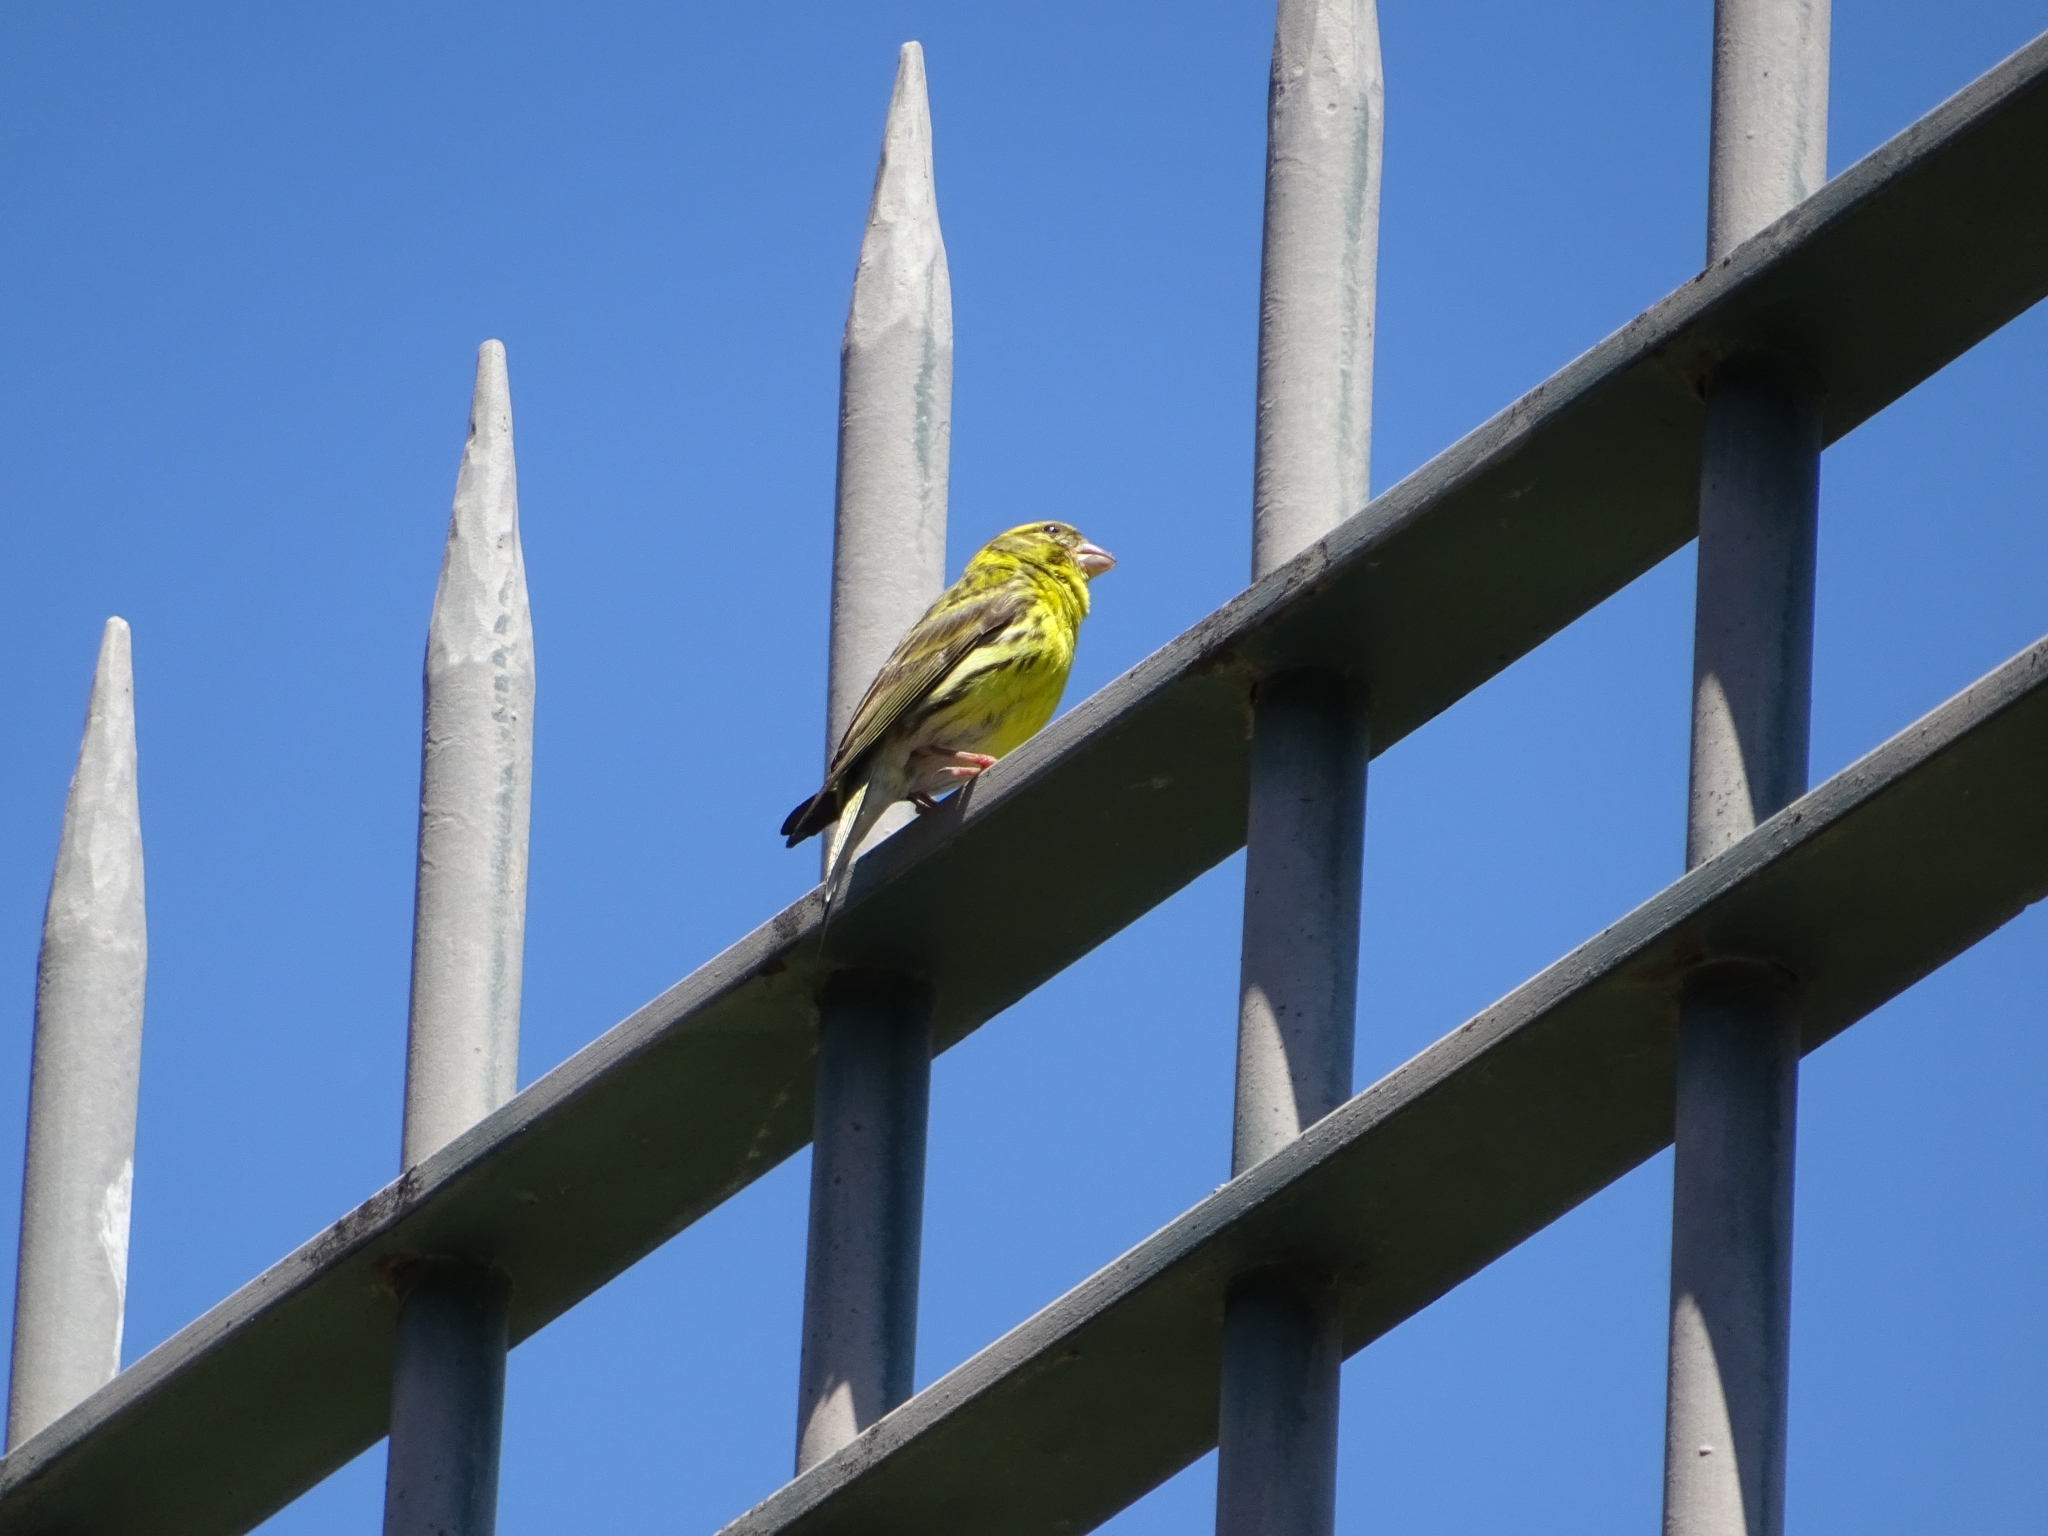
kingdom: Animalia
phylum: Chordata
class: Aves
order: Passeriformes
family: Fringillidae
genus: Serinus
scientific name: Serinus serinus
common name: European serin
